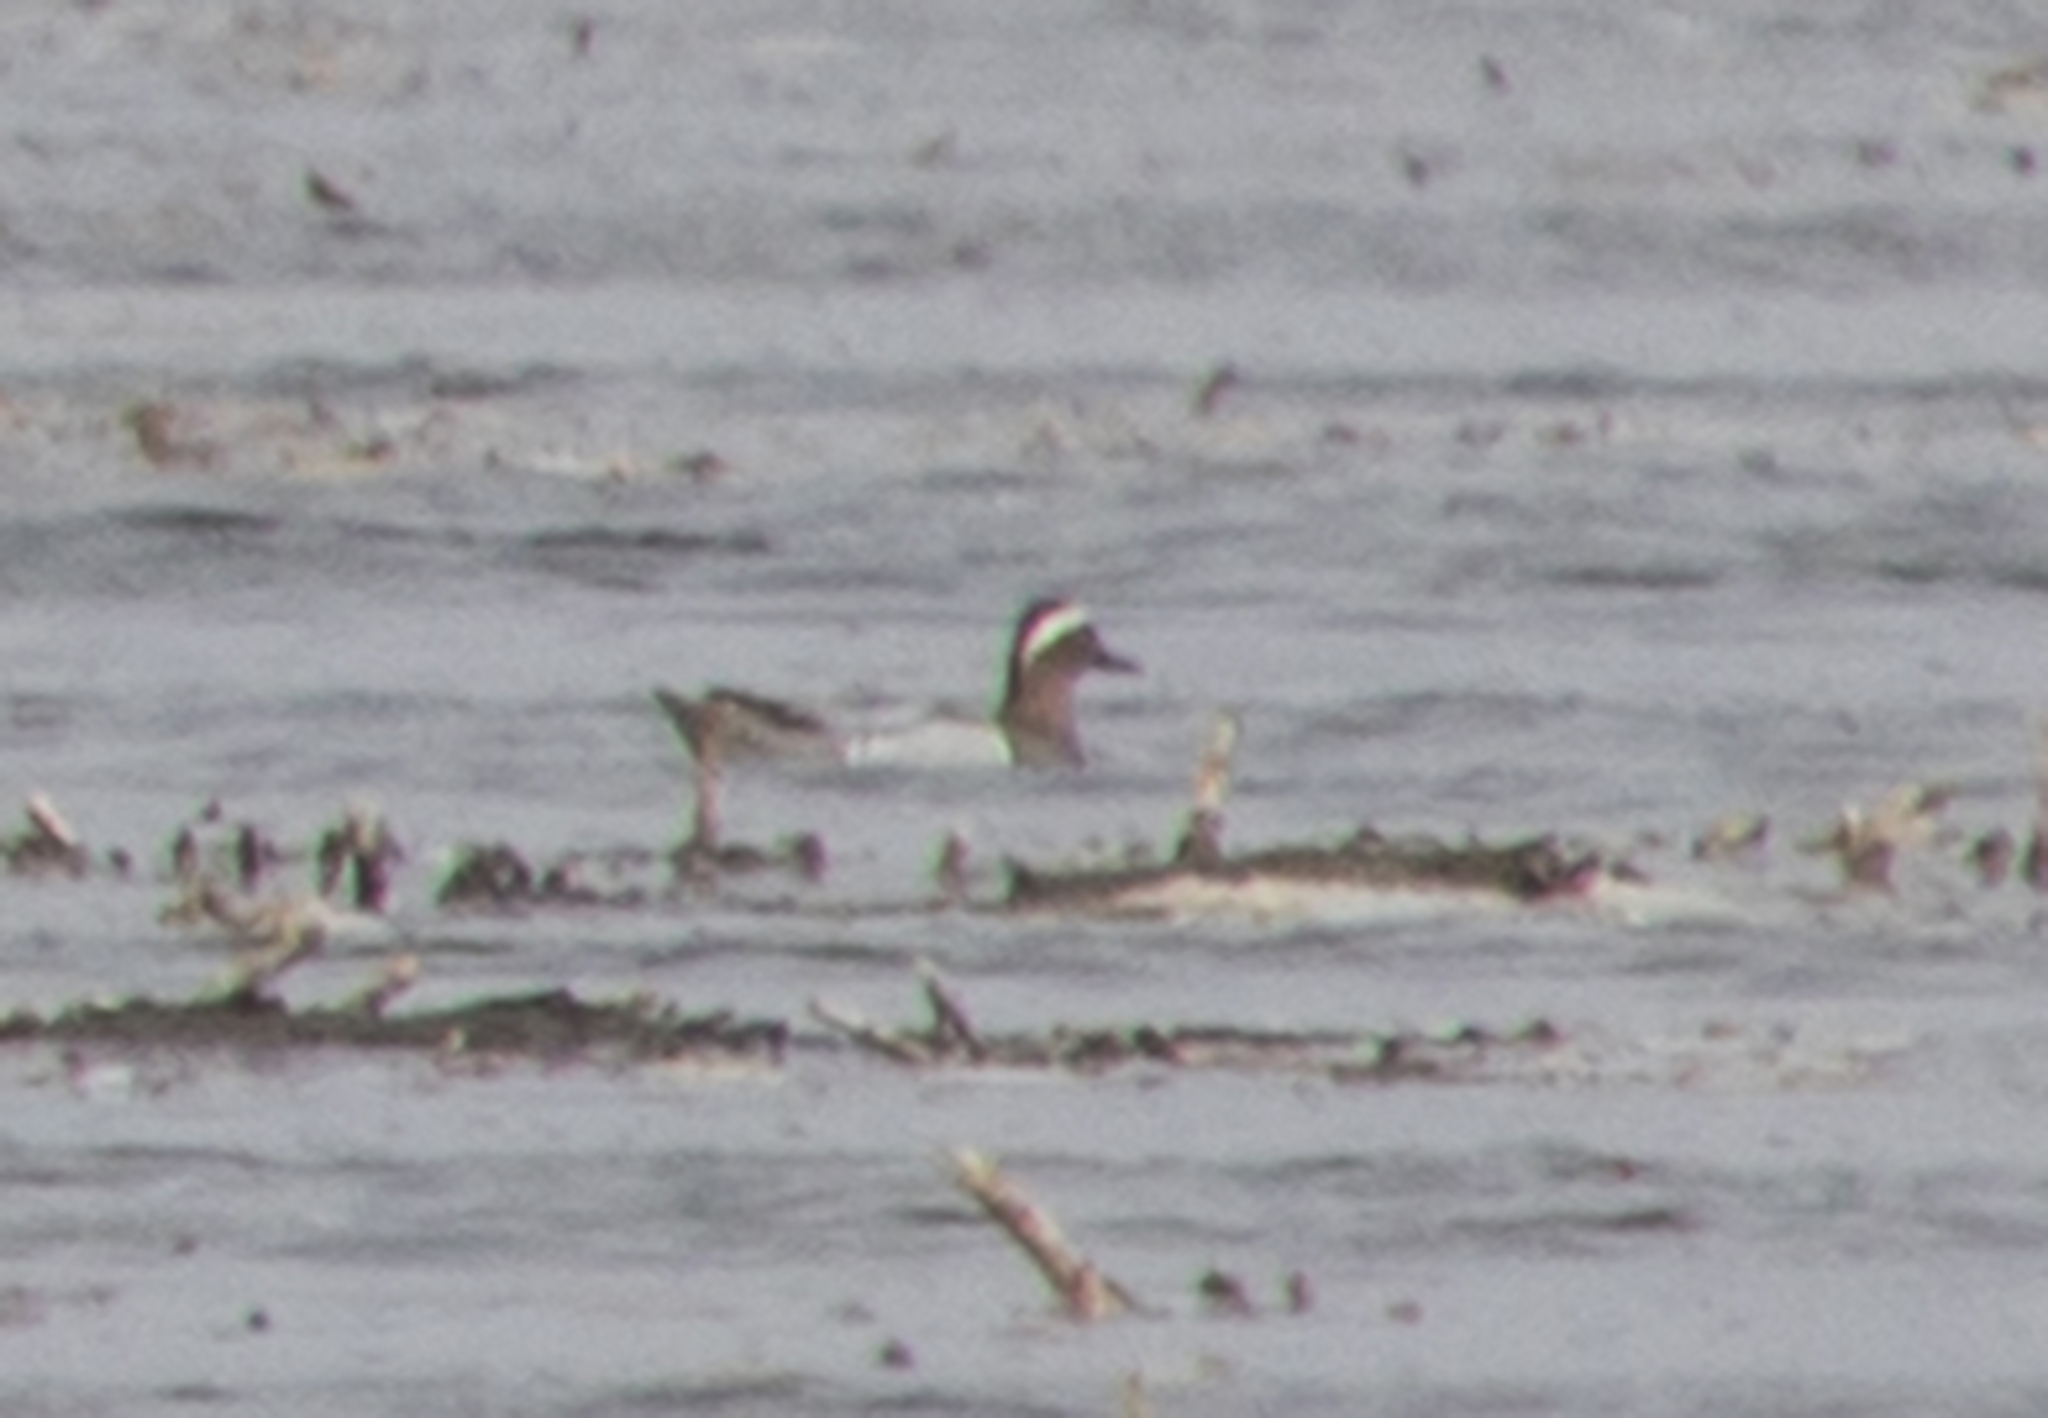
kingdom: Animalia
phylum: Chordata
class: Aves
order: Anseriformes
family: Anatidae
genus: Spatula
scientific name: Spatula querquedula
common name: Garganey
